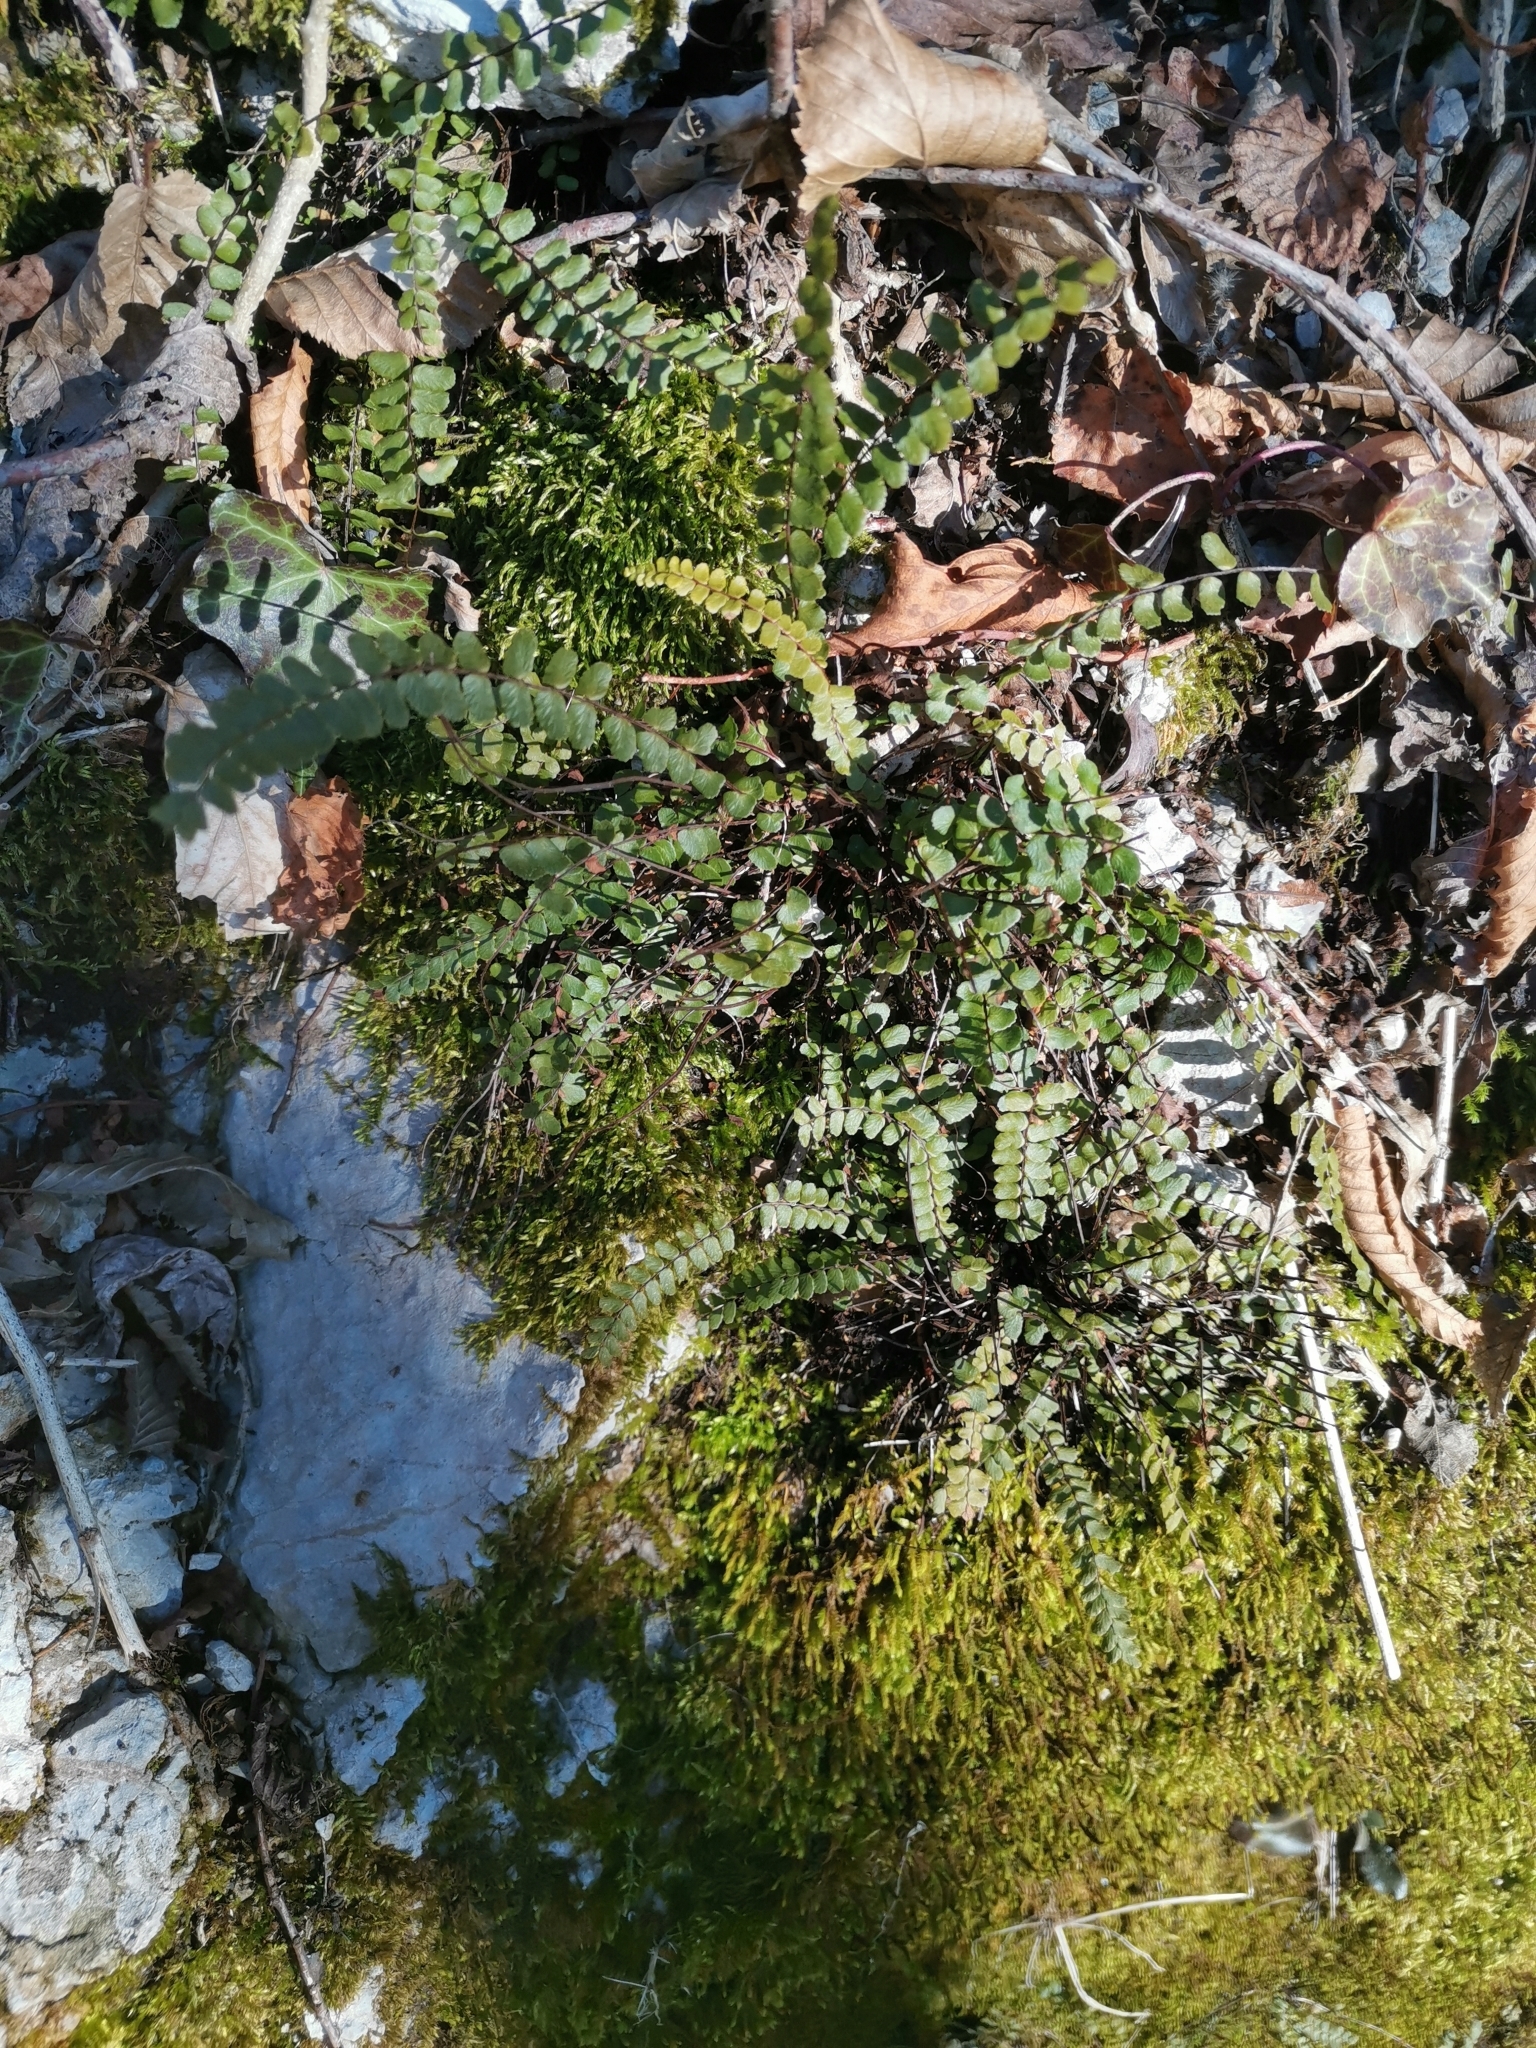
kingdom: Plantae
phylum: Tracheophyta
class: Polypodiopsida
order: Polypodiales
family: Aspleniaceae
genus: Asplenium
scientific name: Asplenium trichomanes
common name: Maidenhair spleenwort
